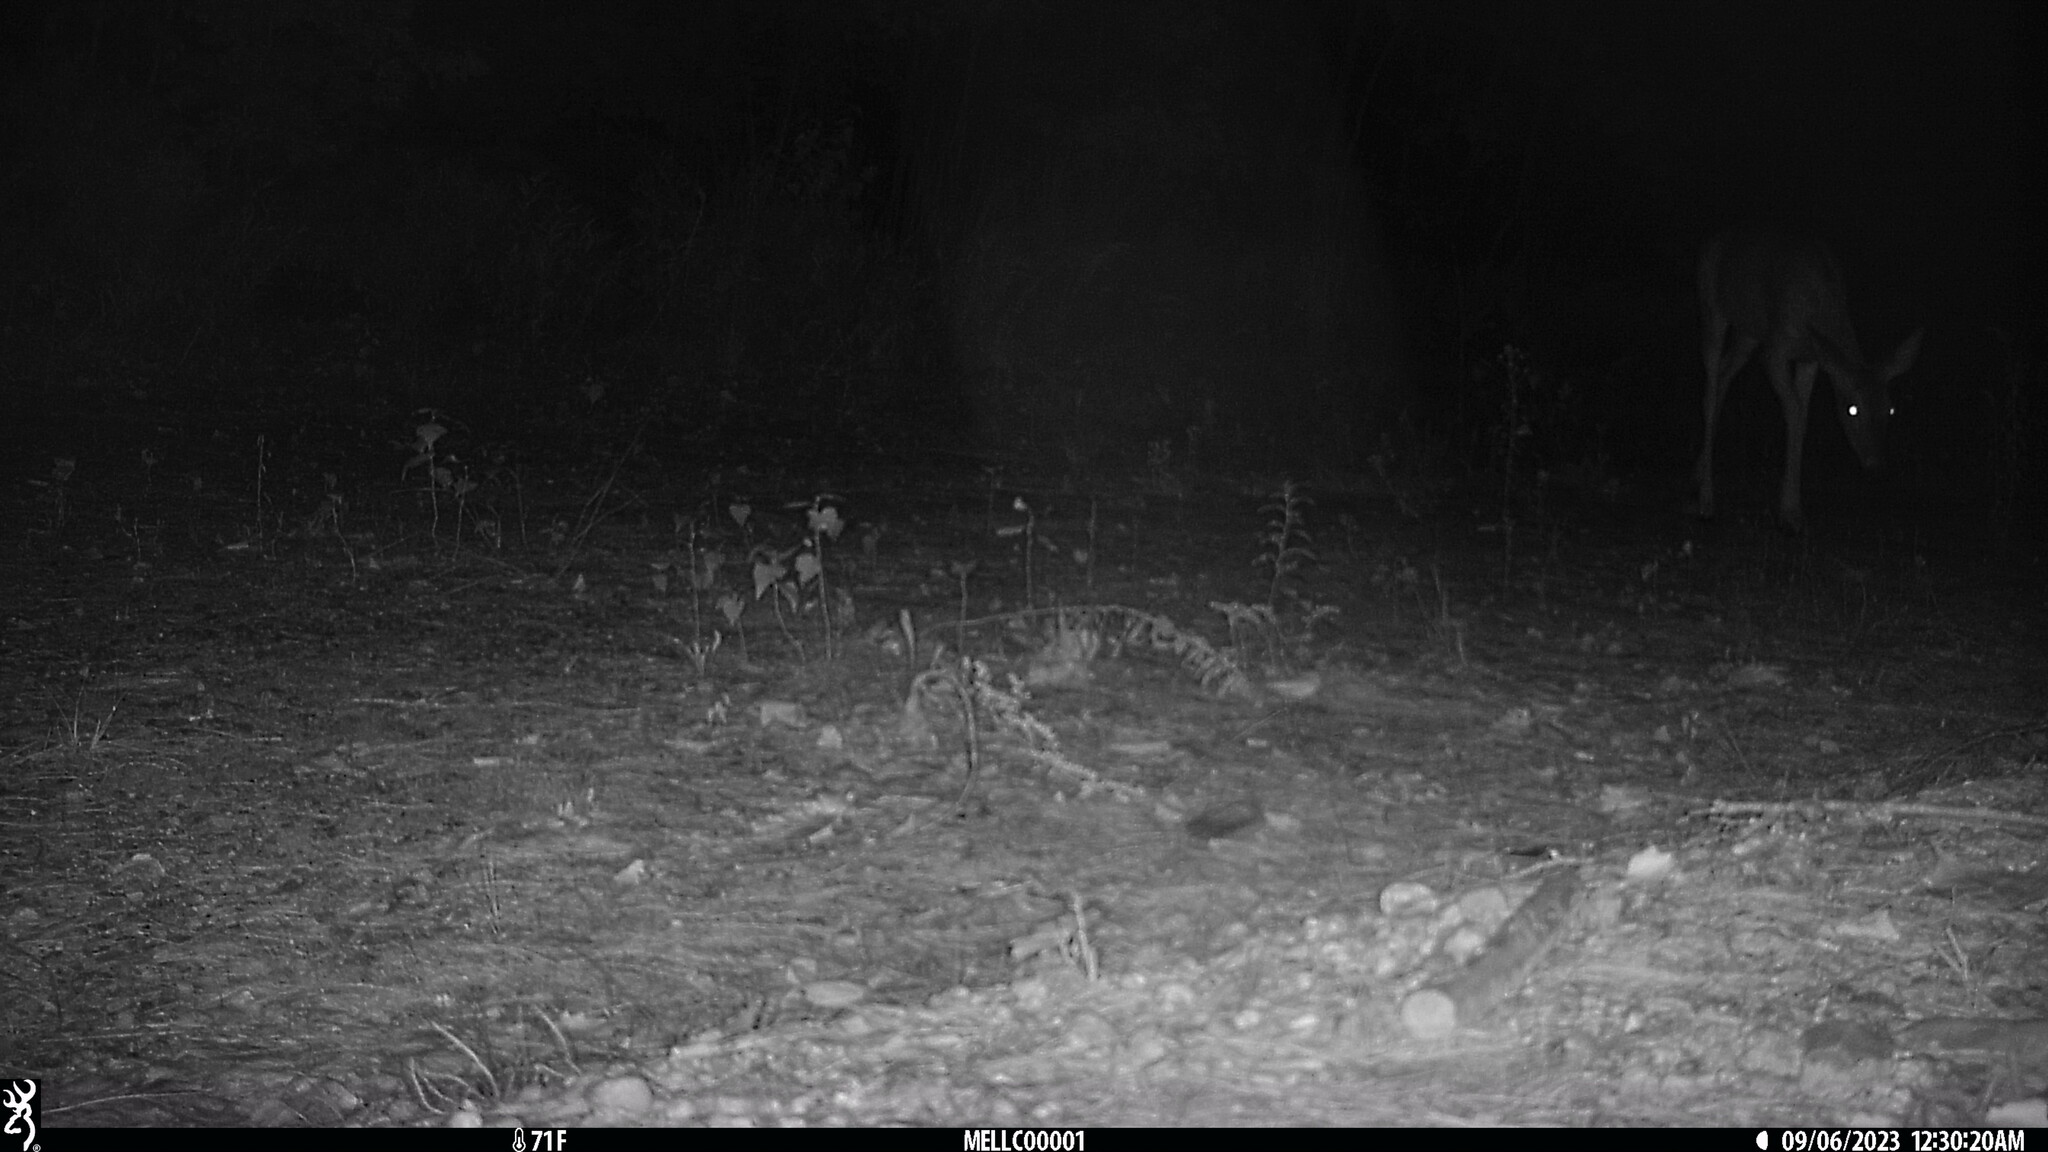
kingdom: Animalia
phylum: Chordata
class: Mammalia
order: Artiodactyla
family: Cervidae
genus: Odocoileus
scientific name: Odocoileus virginianus
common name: White-tailed deer
